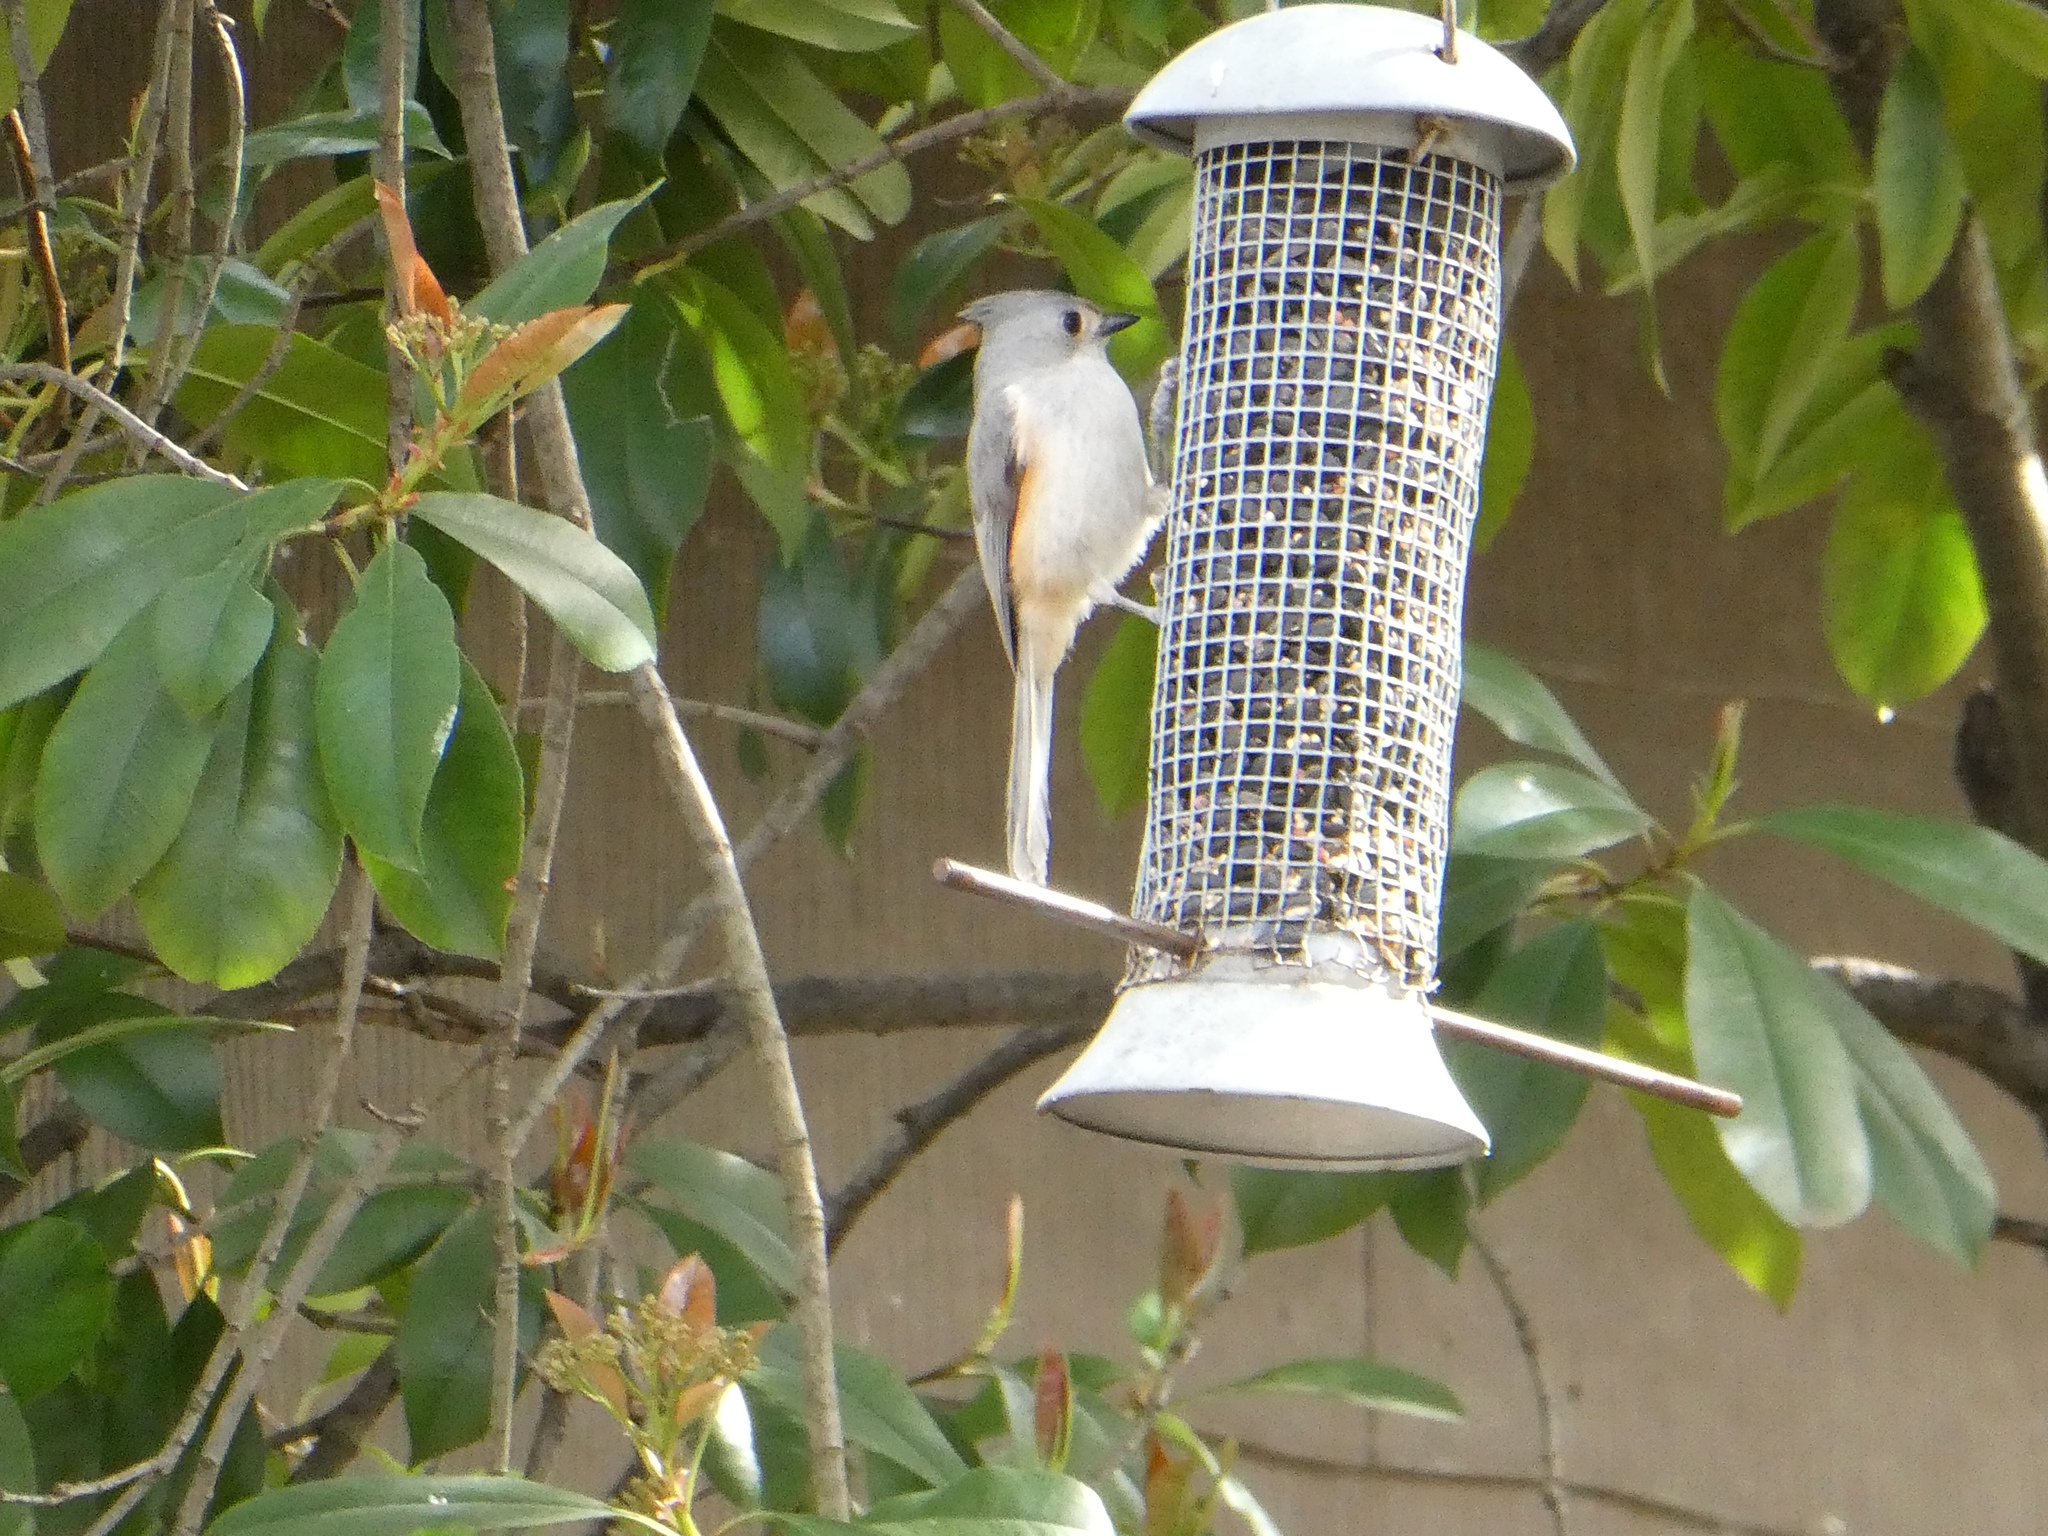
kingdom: Animalia
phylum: Chordata
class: Aves
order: Passeriformes
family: Paridae
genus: Baeolophus
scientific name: Baeolophus bicolor
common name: Tufted titmouse
